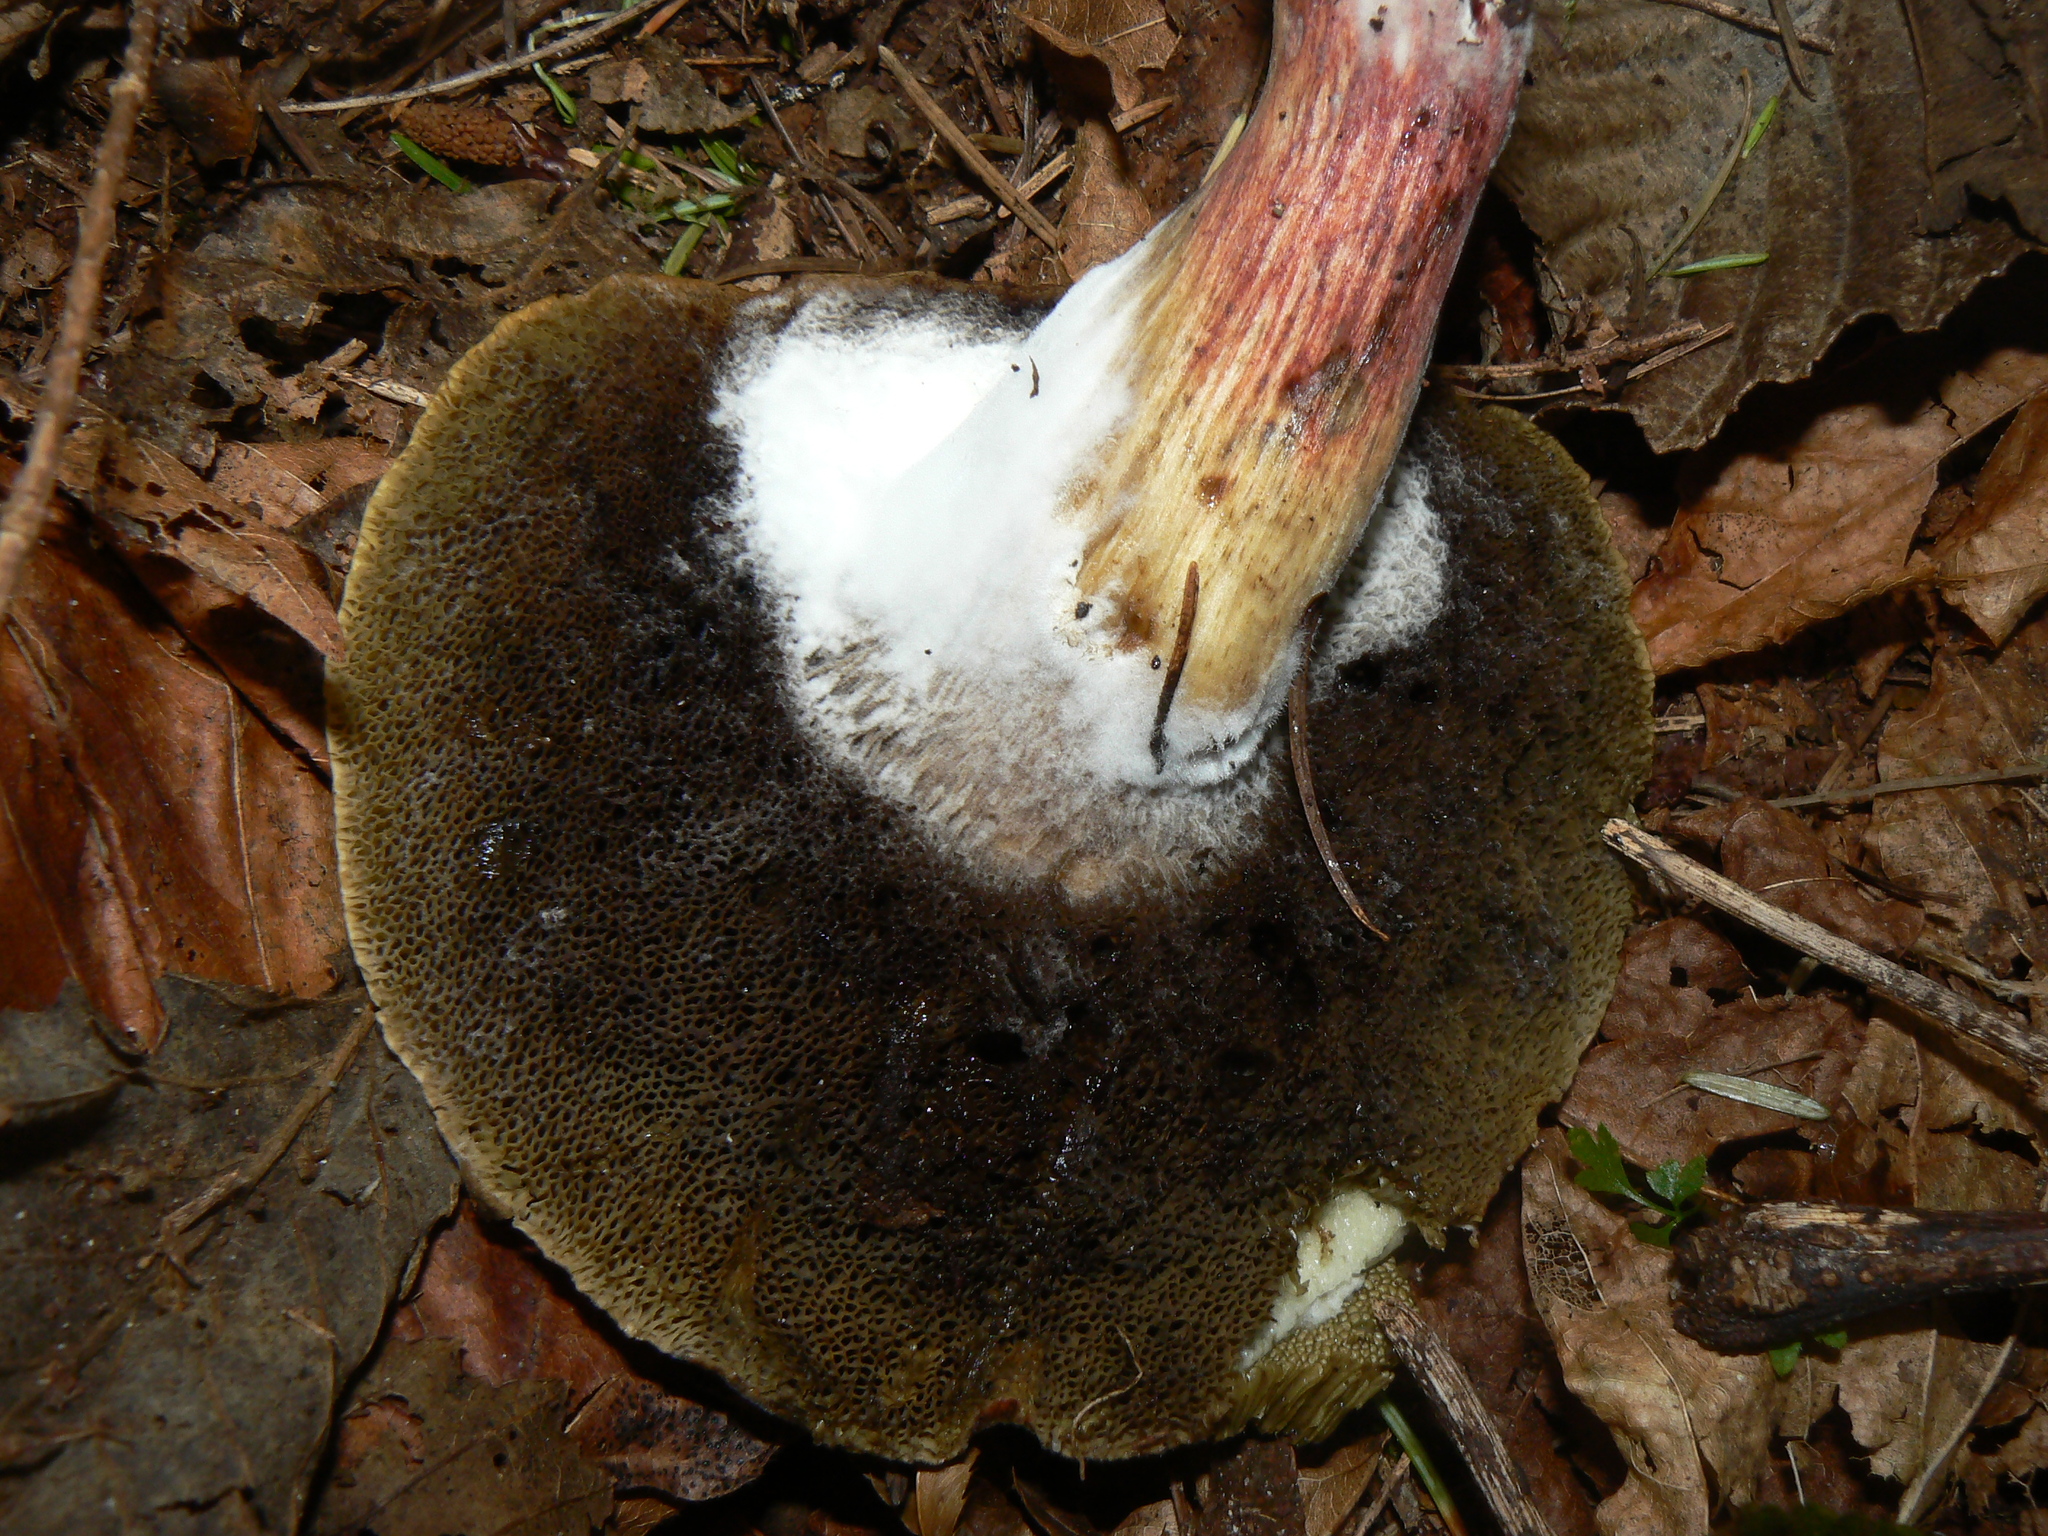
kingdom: Fungi
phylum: Basidiomycota
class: Agaricomycetes
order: Boletales
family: Boletaceae
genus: Xerocomellus
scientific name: Xerocomellus diffractus
